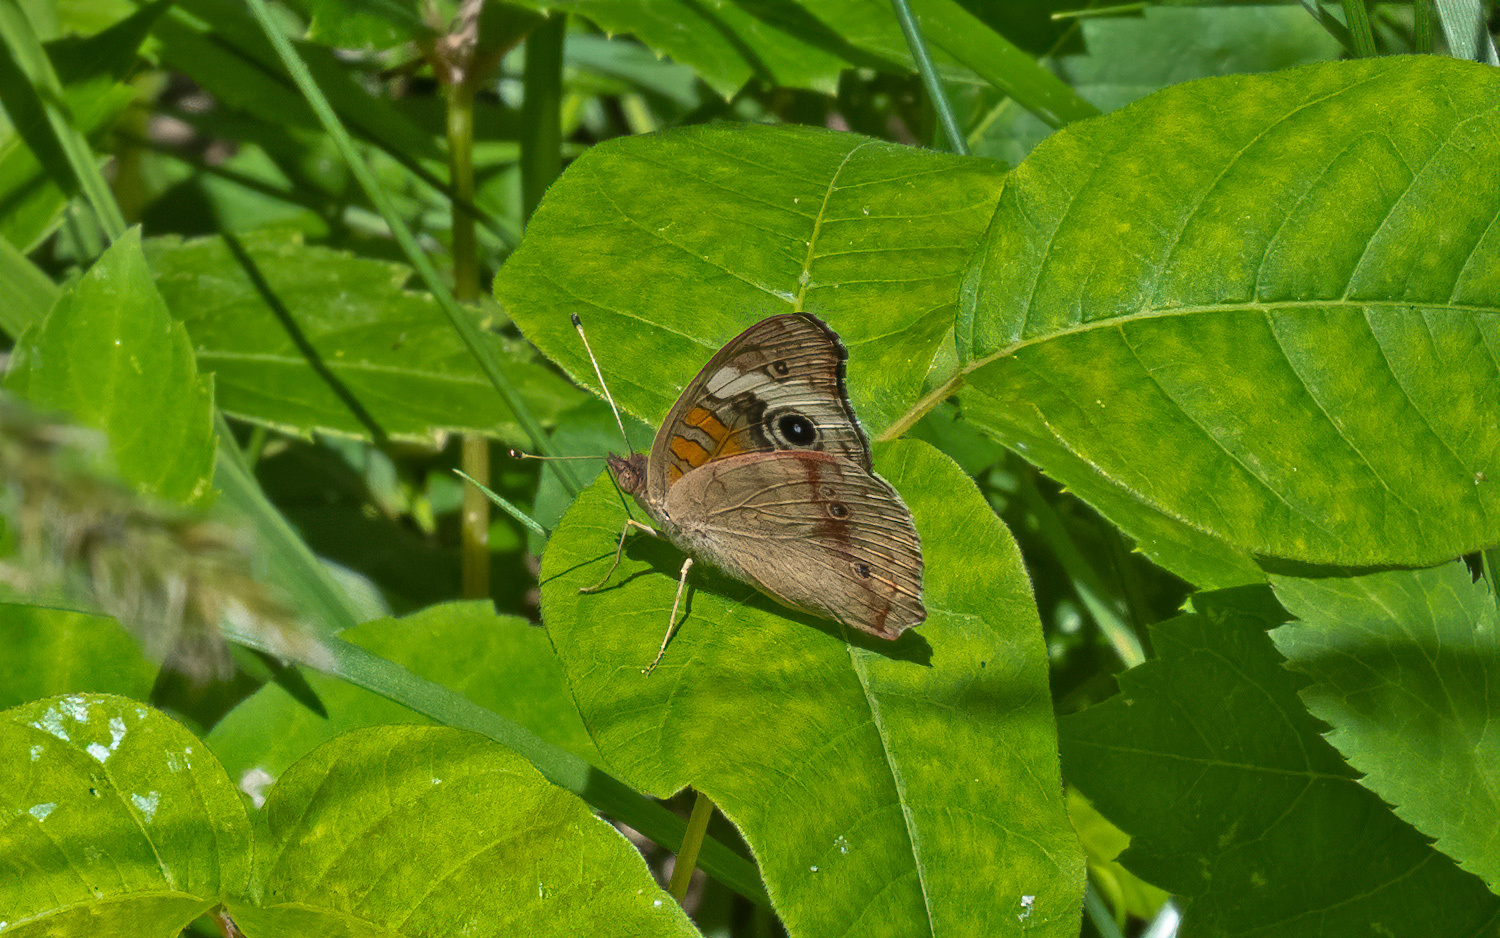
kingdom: Animalia
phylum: Arthropoda
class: Insecta
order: Lepidoptera
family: Nymphalidae
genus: Junonia
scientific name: Junonia coenia
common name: Common buckeye
